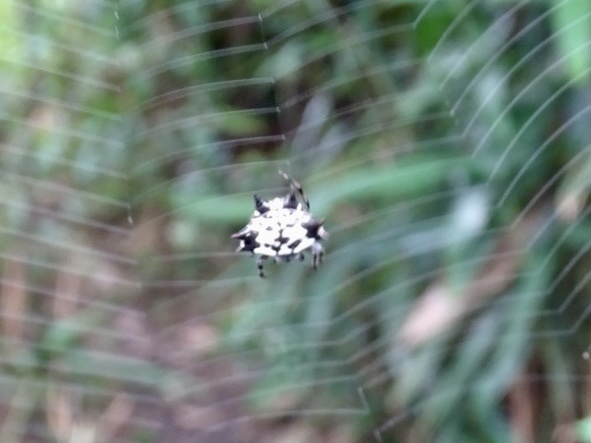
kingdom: Animalia
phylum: Arthropoda
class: Arachnida
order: Araneae
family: Araneidae
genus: Gasteracantha
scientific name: Gasteracantha kuhli
